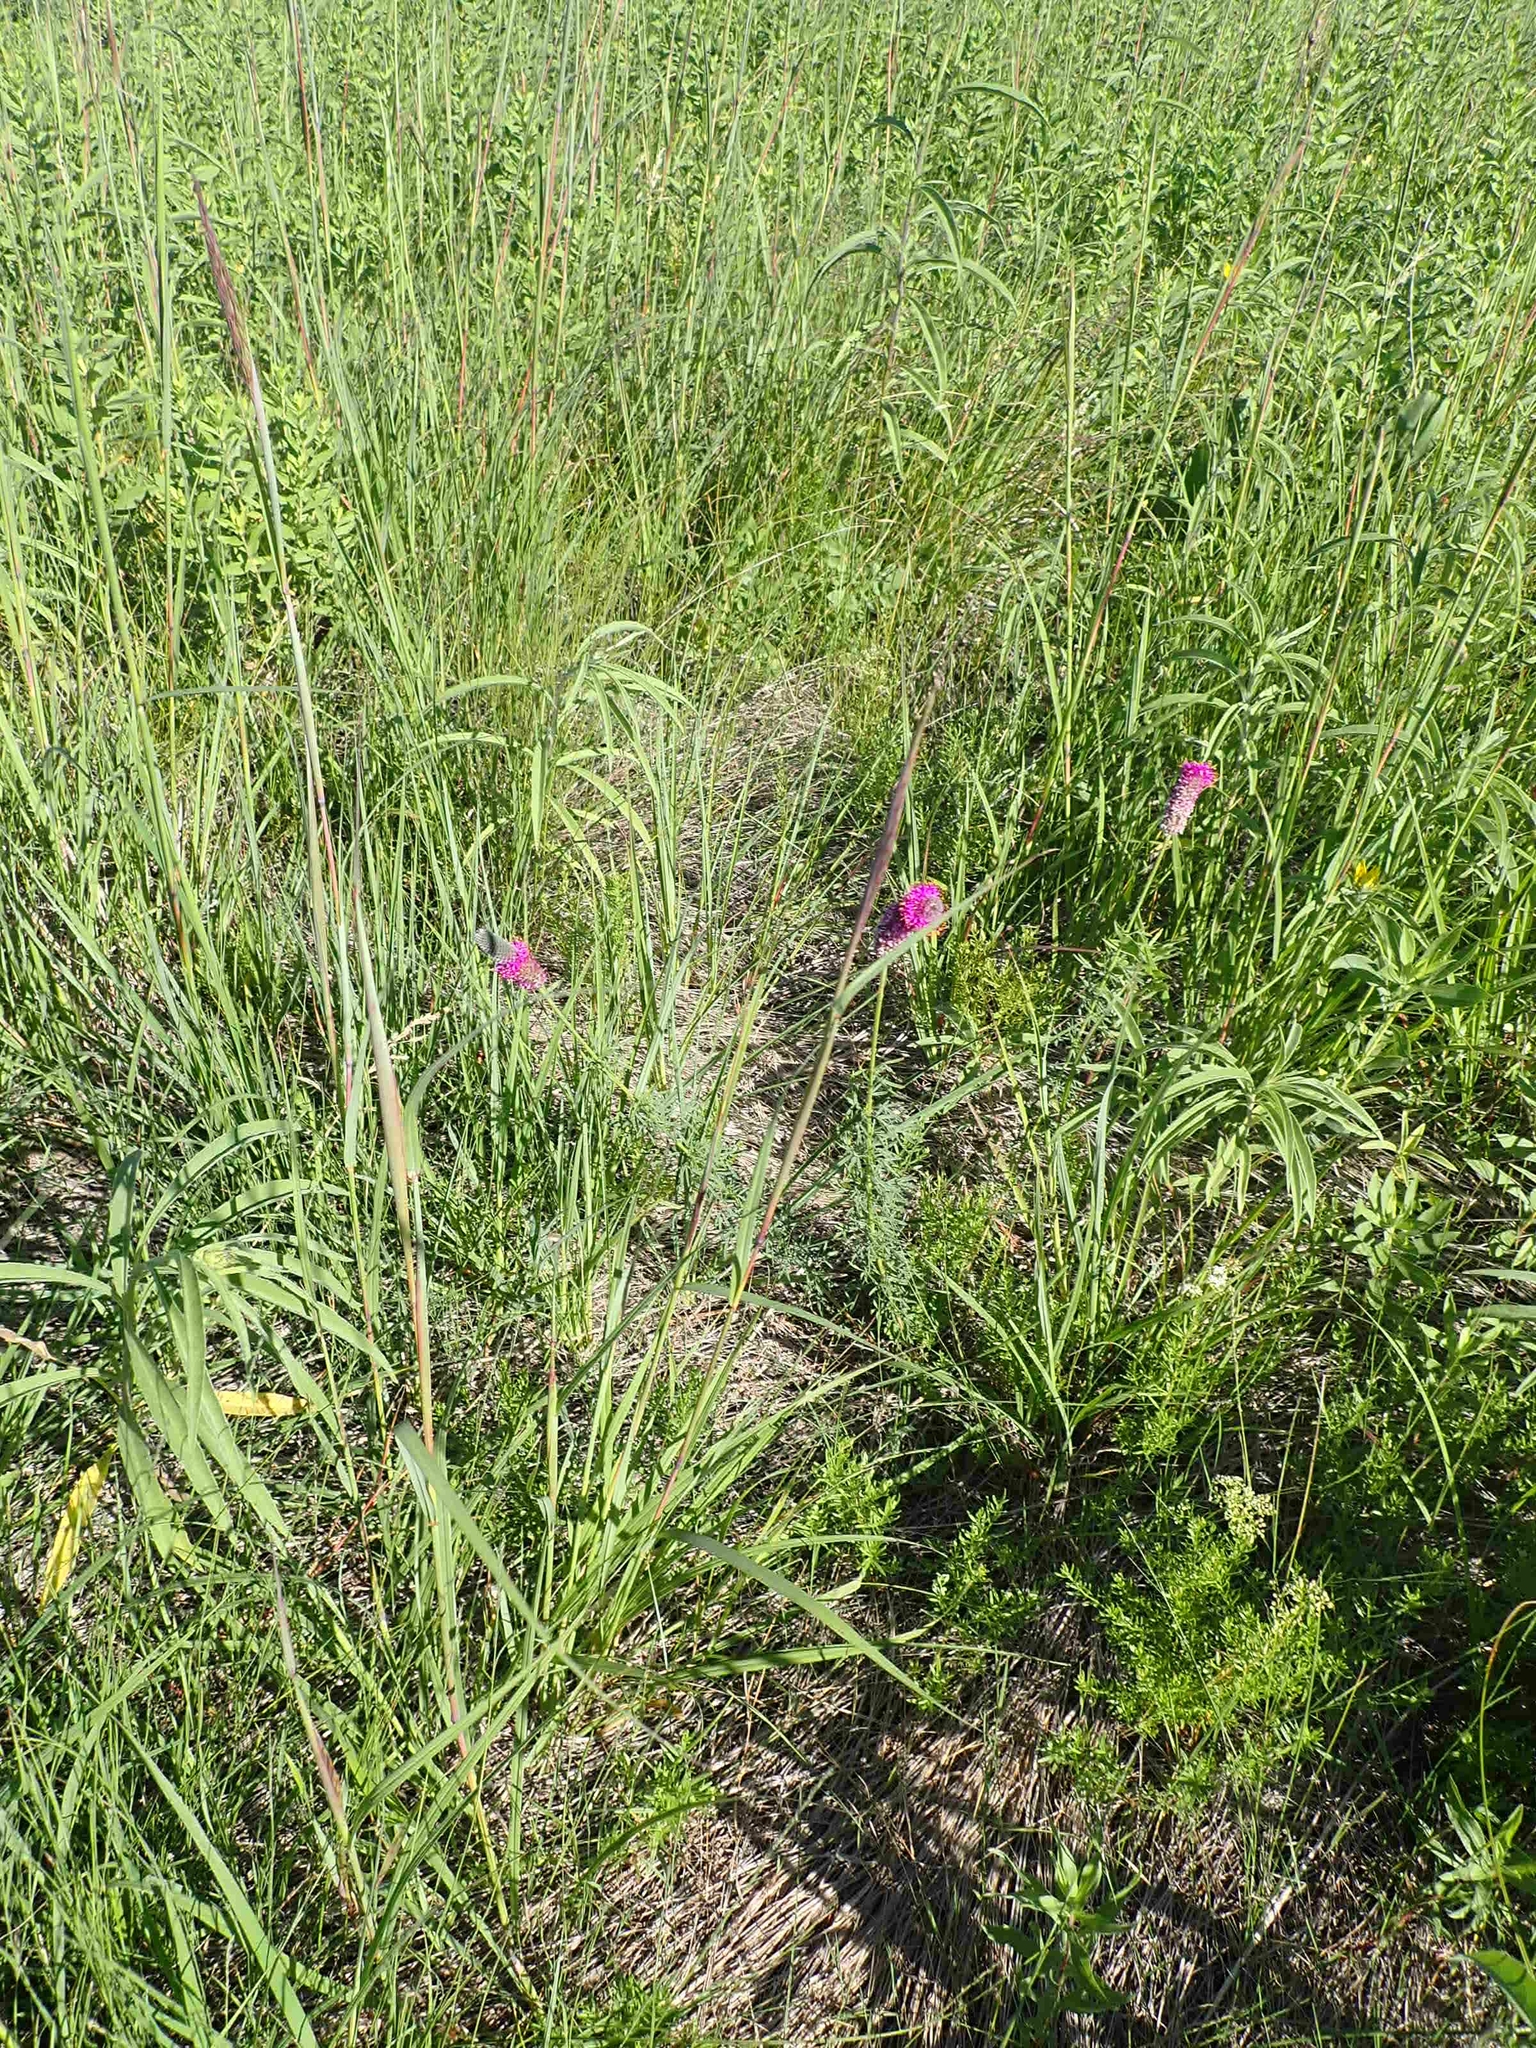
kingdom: Plantae
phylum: Tracheophyta
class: Magnoliopsida
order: Fabales
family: Fabaceae
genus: Dalea
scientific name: Dalea purpurea
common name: Purple prairie-clover
